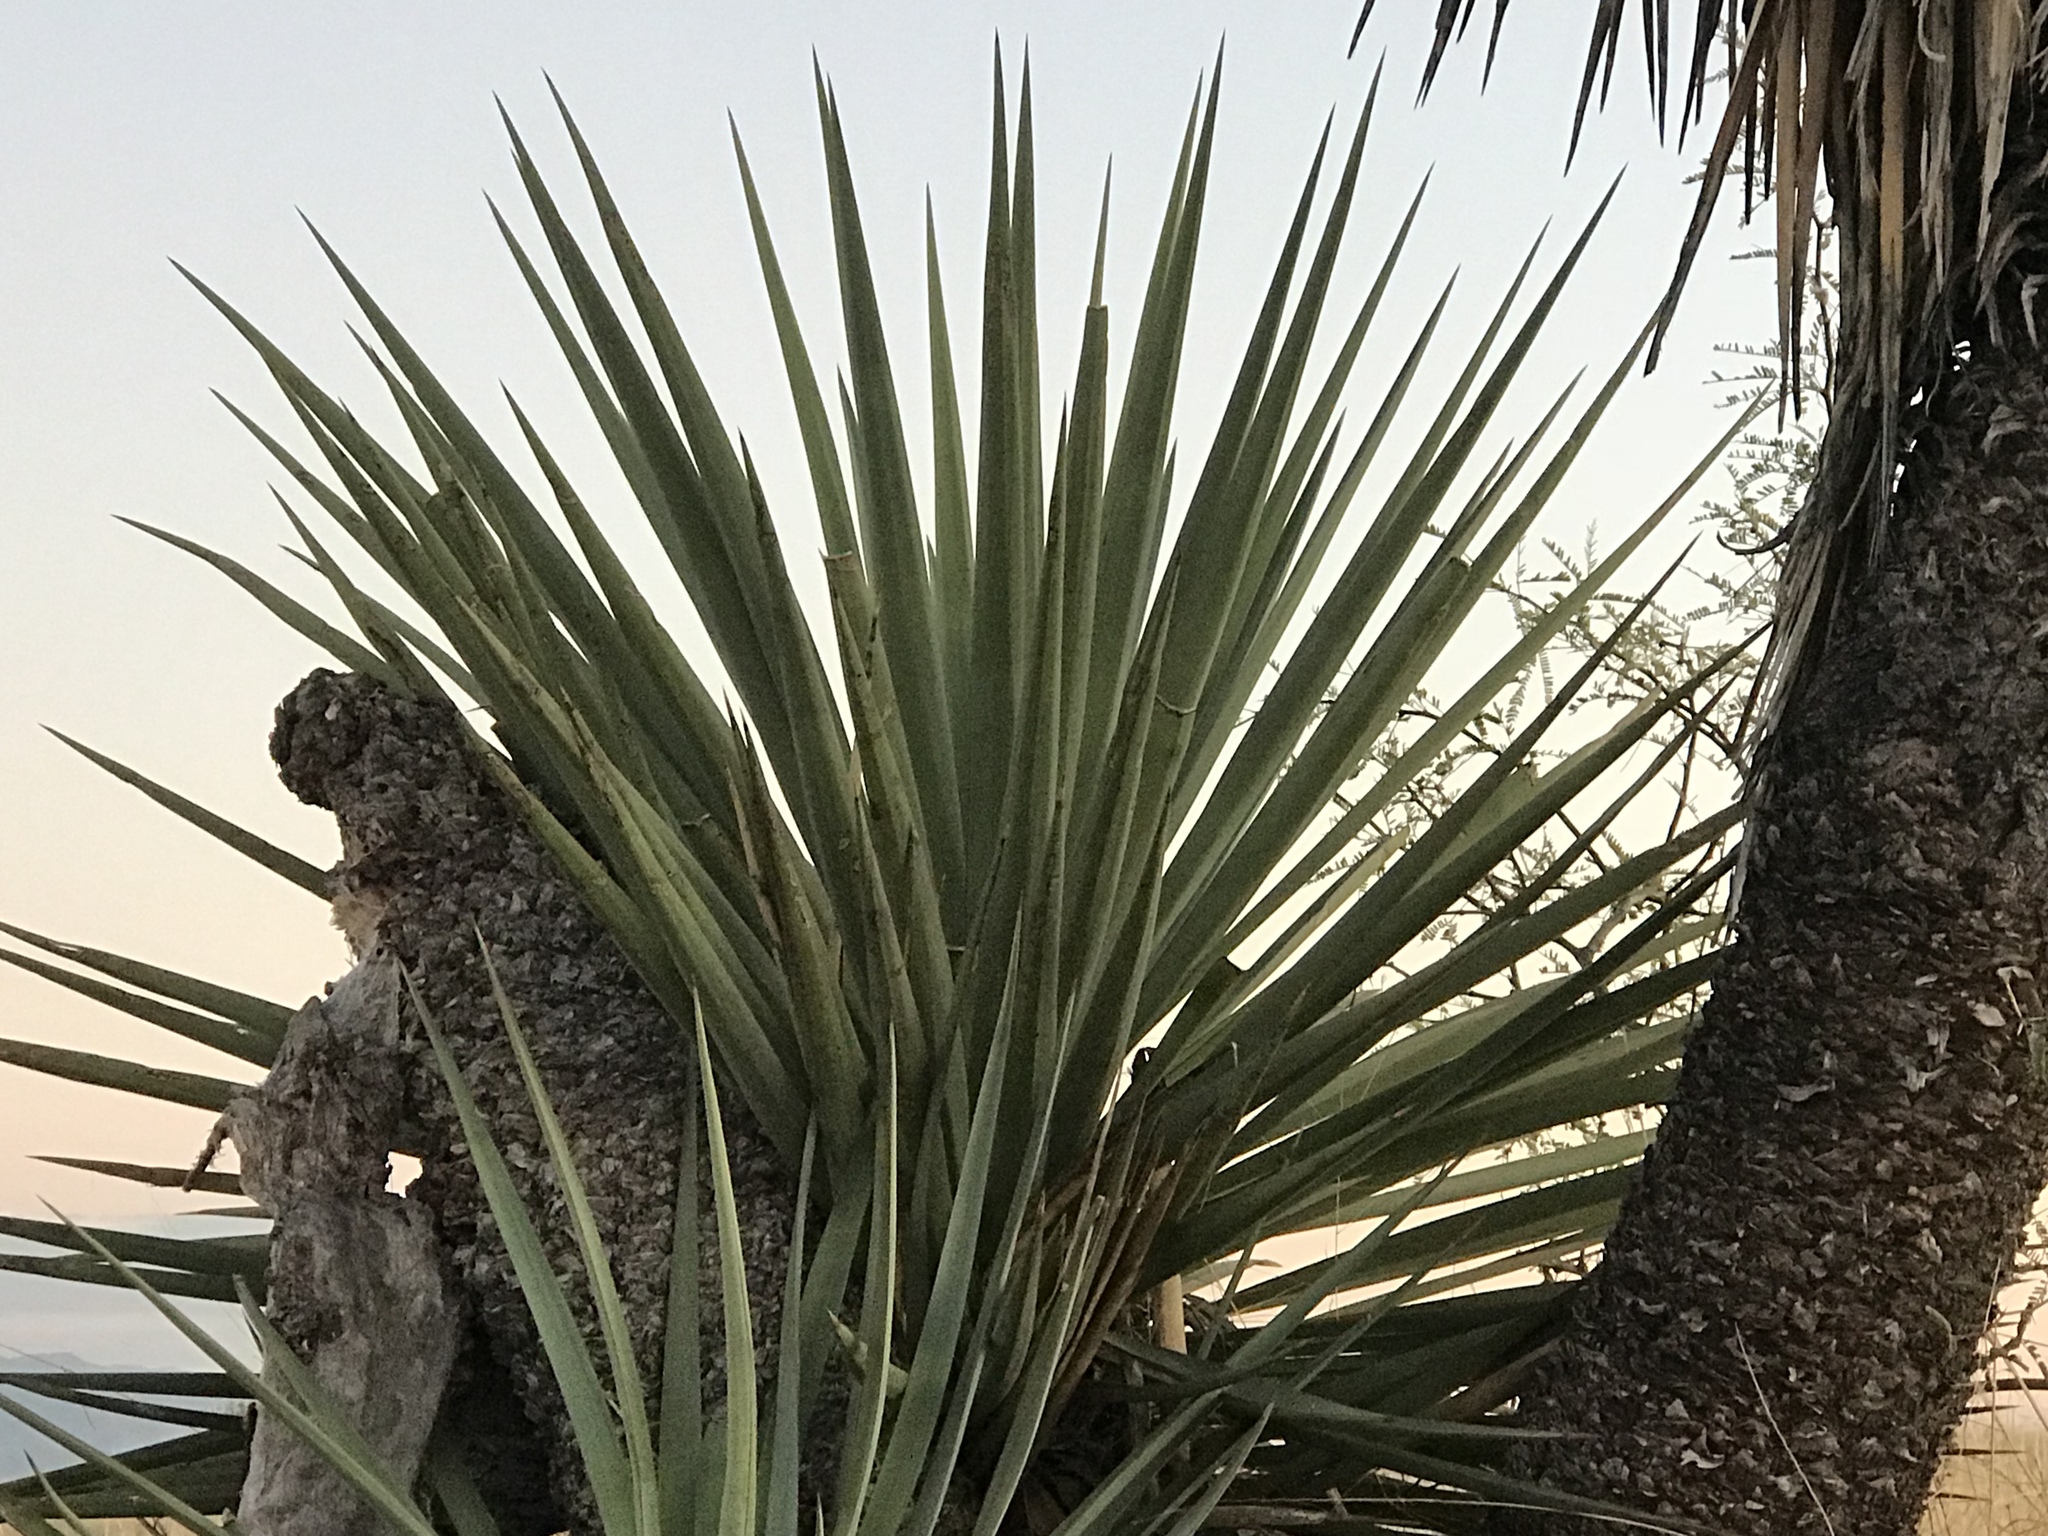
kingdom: Plantae
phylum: Tracheophyta
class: Liliopsida
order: Asparagales
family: Asparagaceae
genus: Yucca
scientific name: Yucca schottii
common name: Hoary yucca
